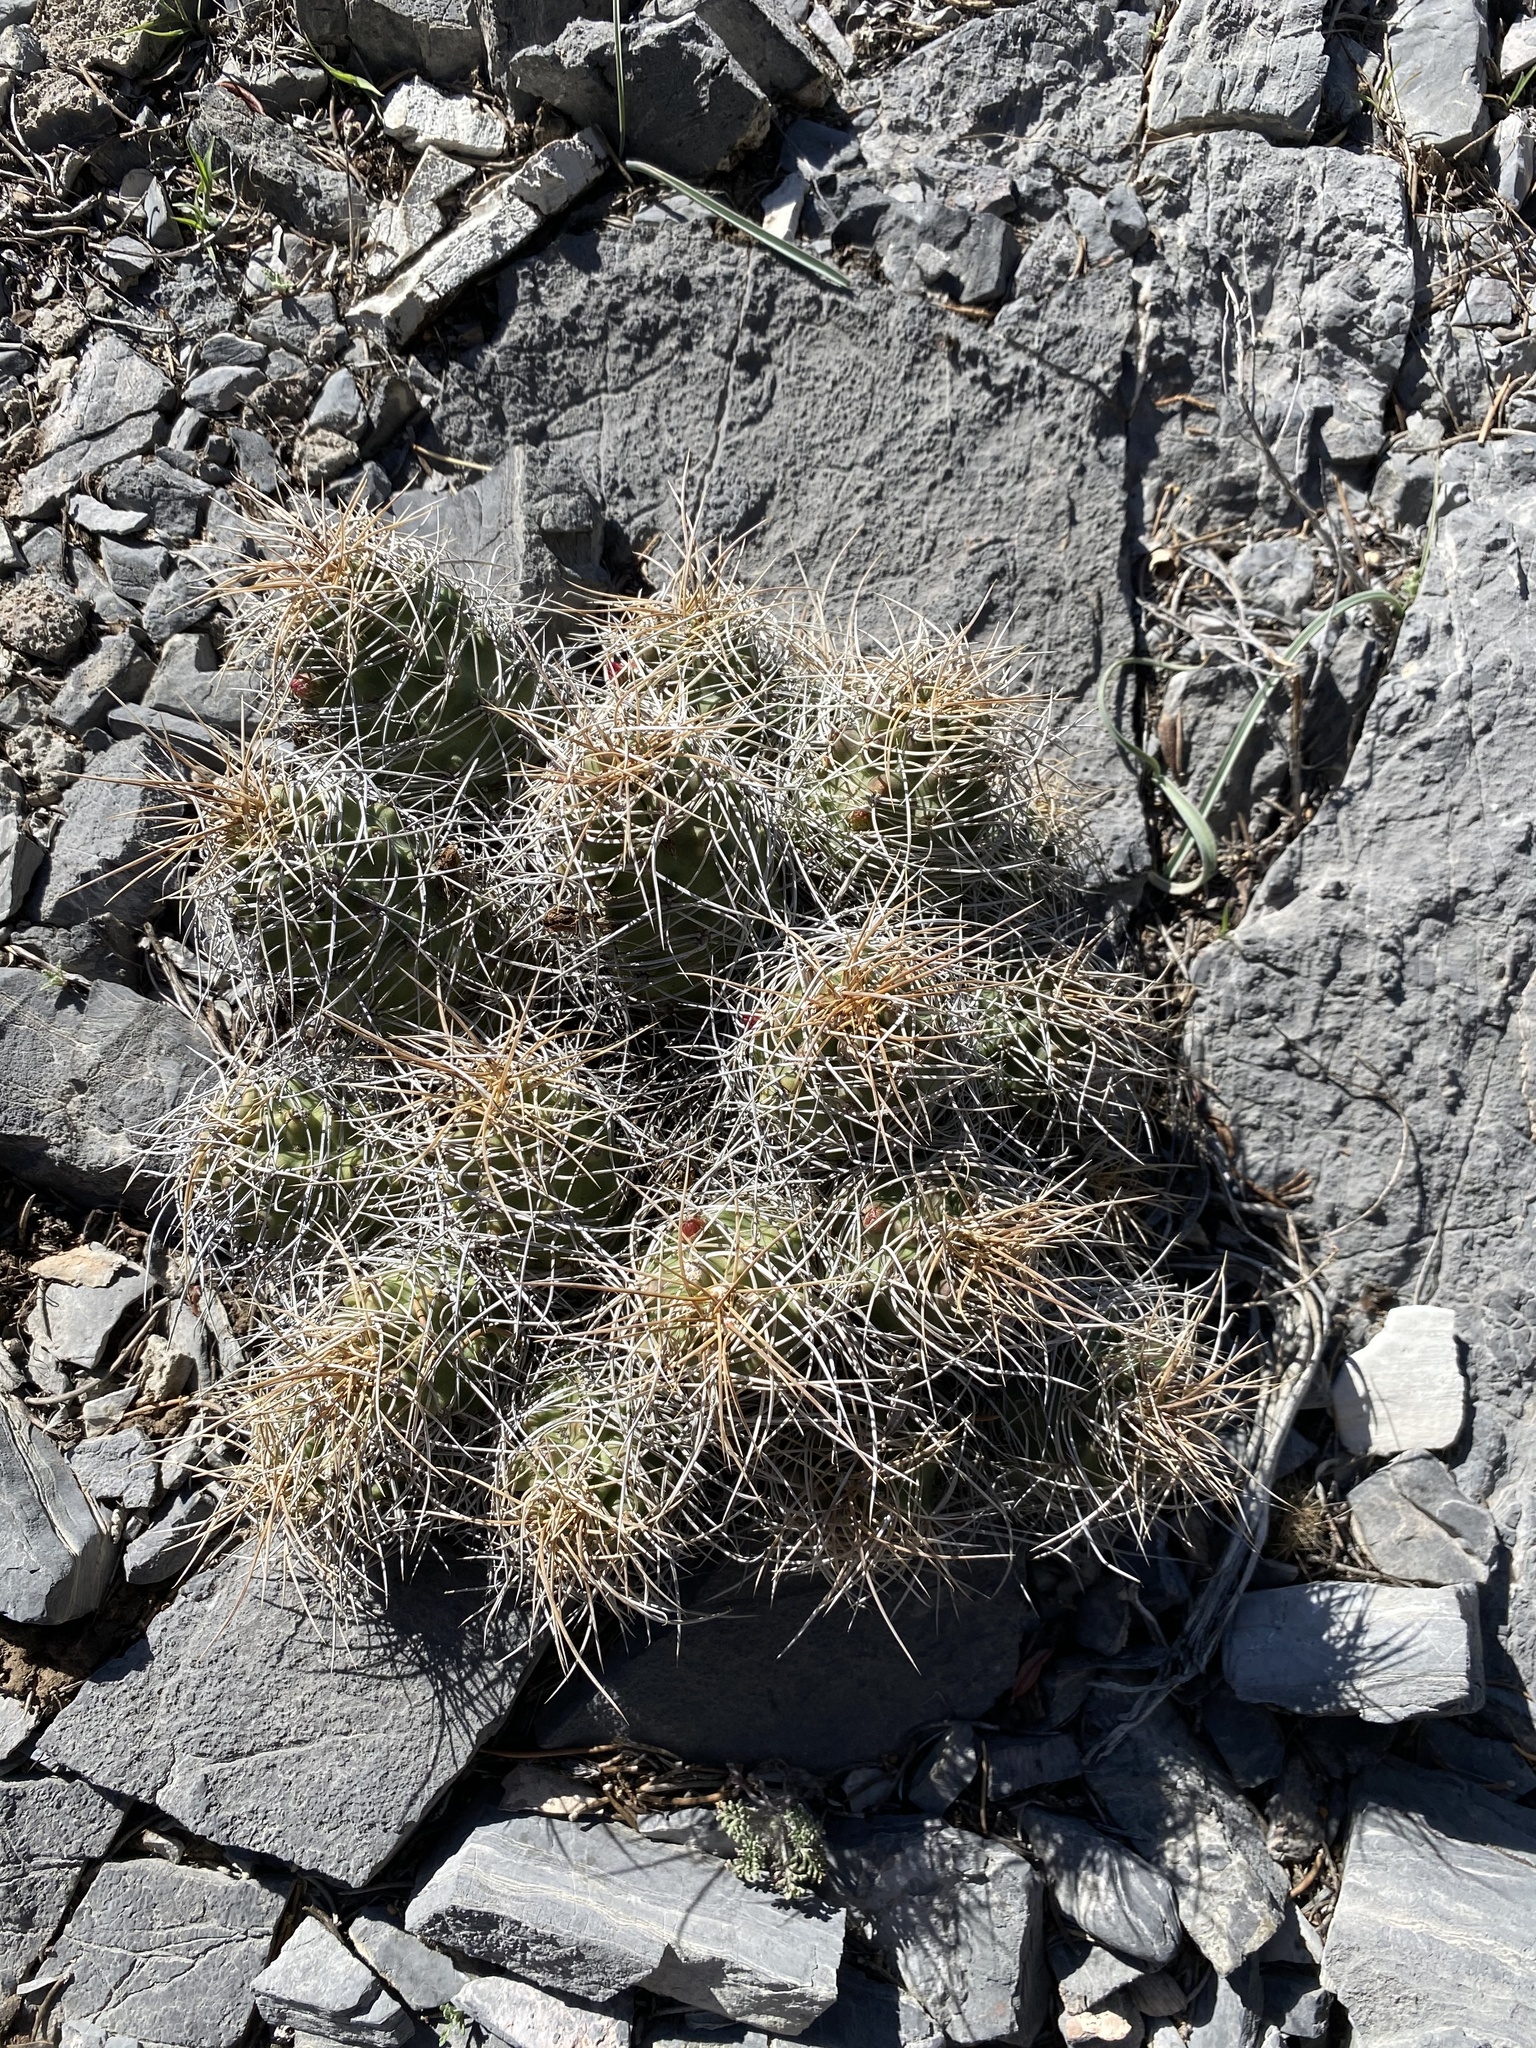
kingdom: Plantae
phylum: Tracheophyta
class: Magnoliopsida
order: Caryophyllales
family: Cactaceae
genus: Echinocereus
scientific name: Echinocereus triglochidiatus
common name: Claretcup hedgehog
